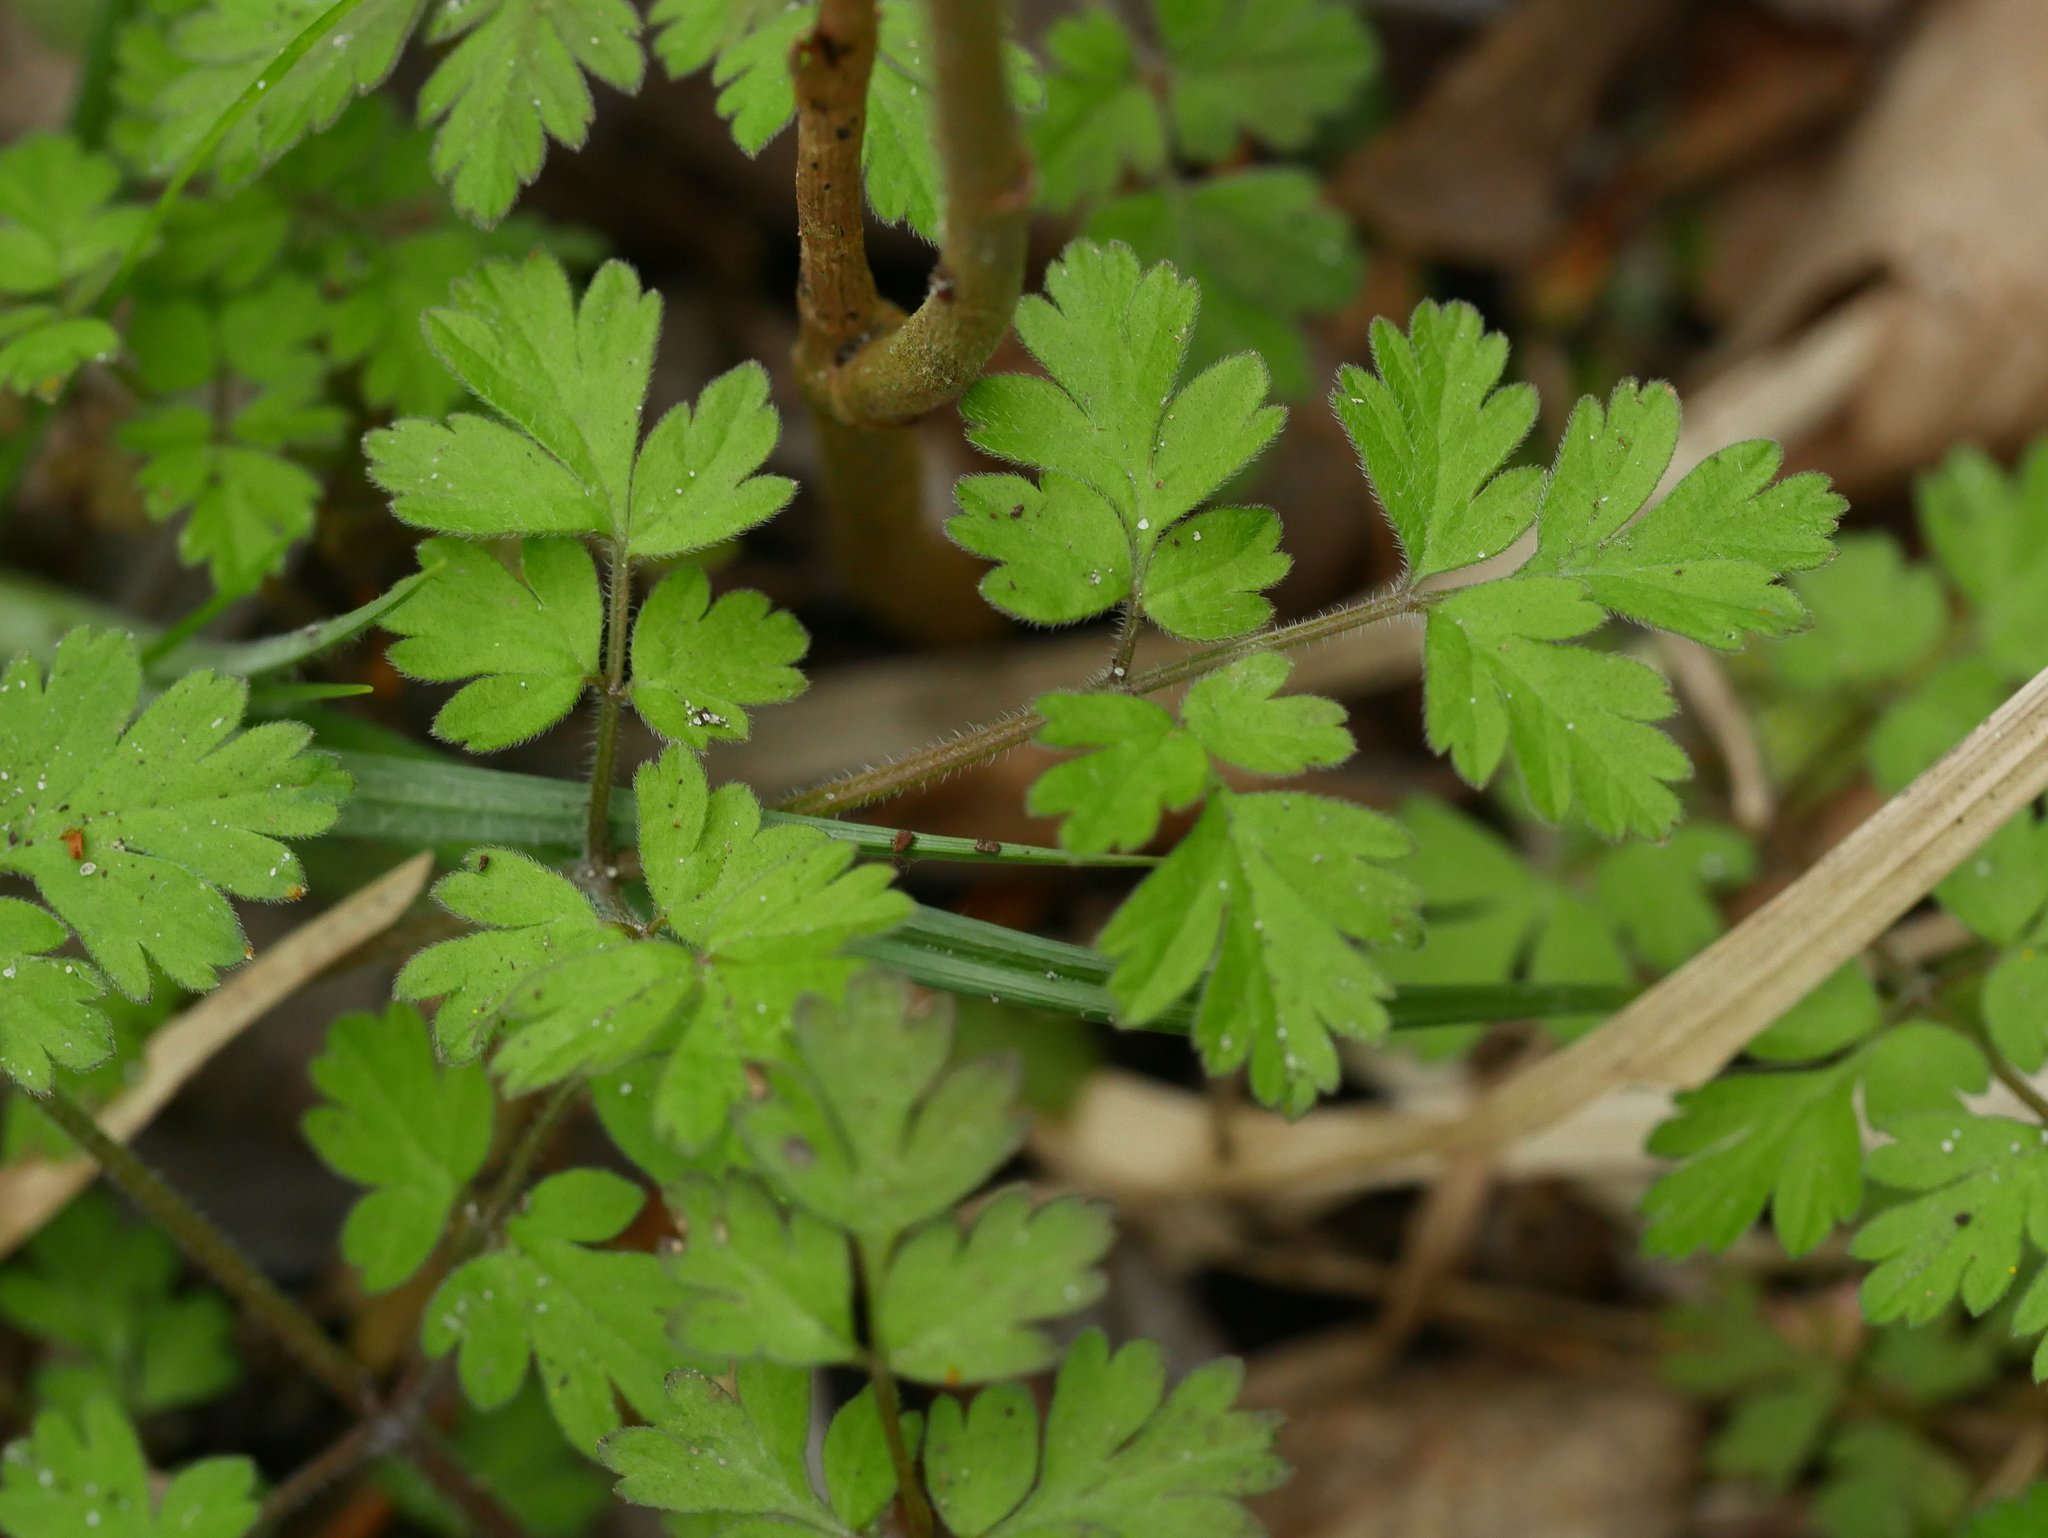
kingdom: Plantae
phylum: Tracheophyta
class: Magnoliopsida
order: Apiales
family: Apiaceae
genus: Chaerophyllum
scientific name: Chaerophyllum temulum
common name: Rough chervil
